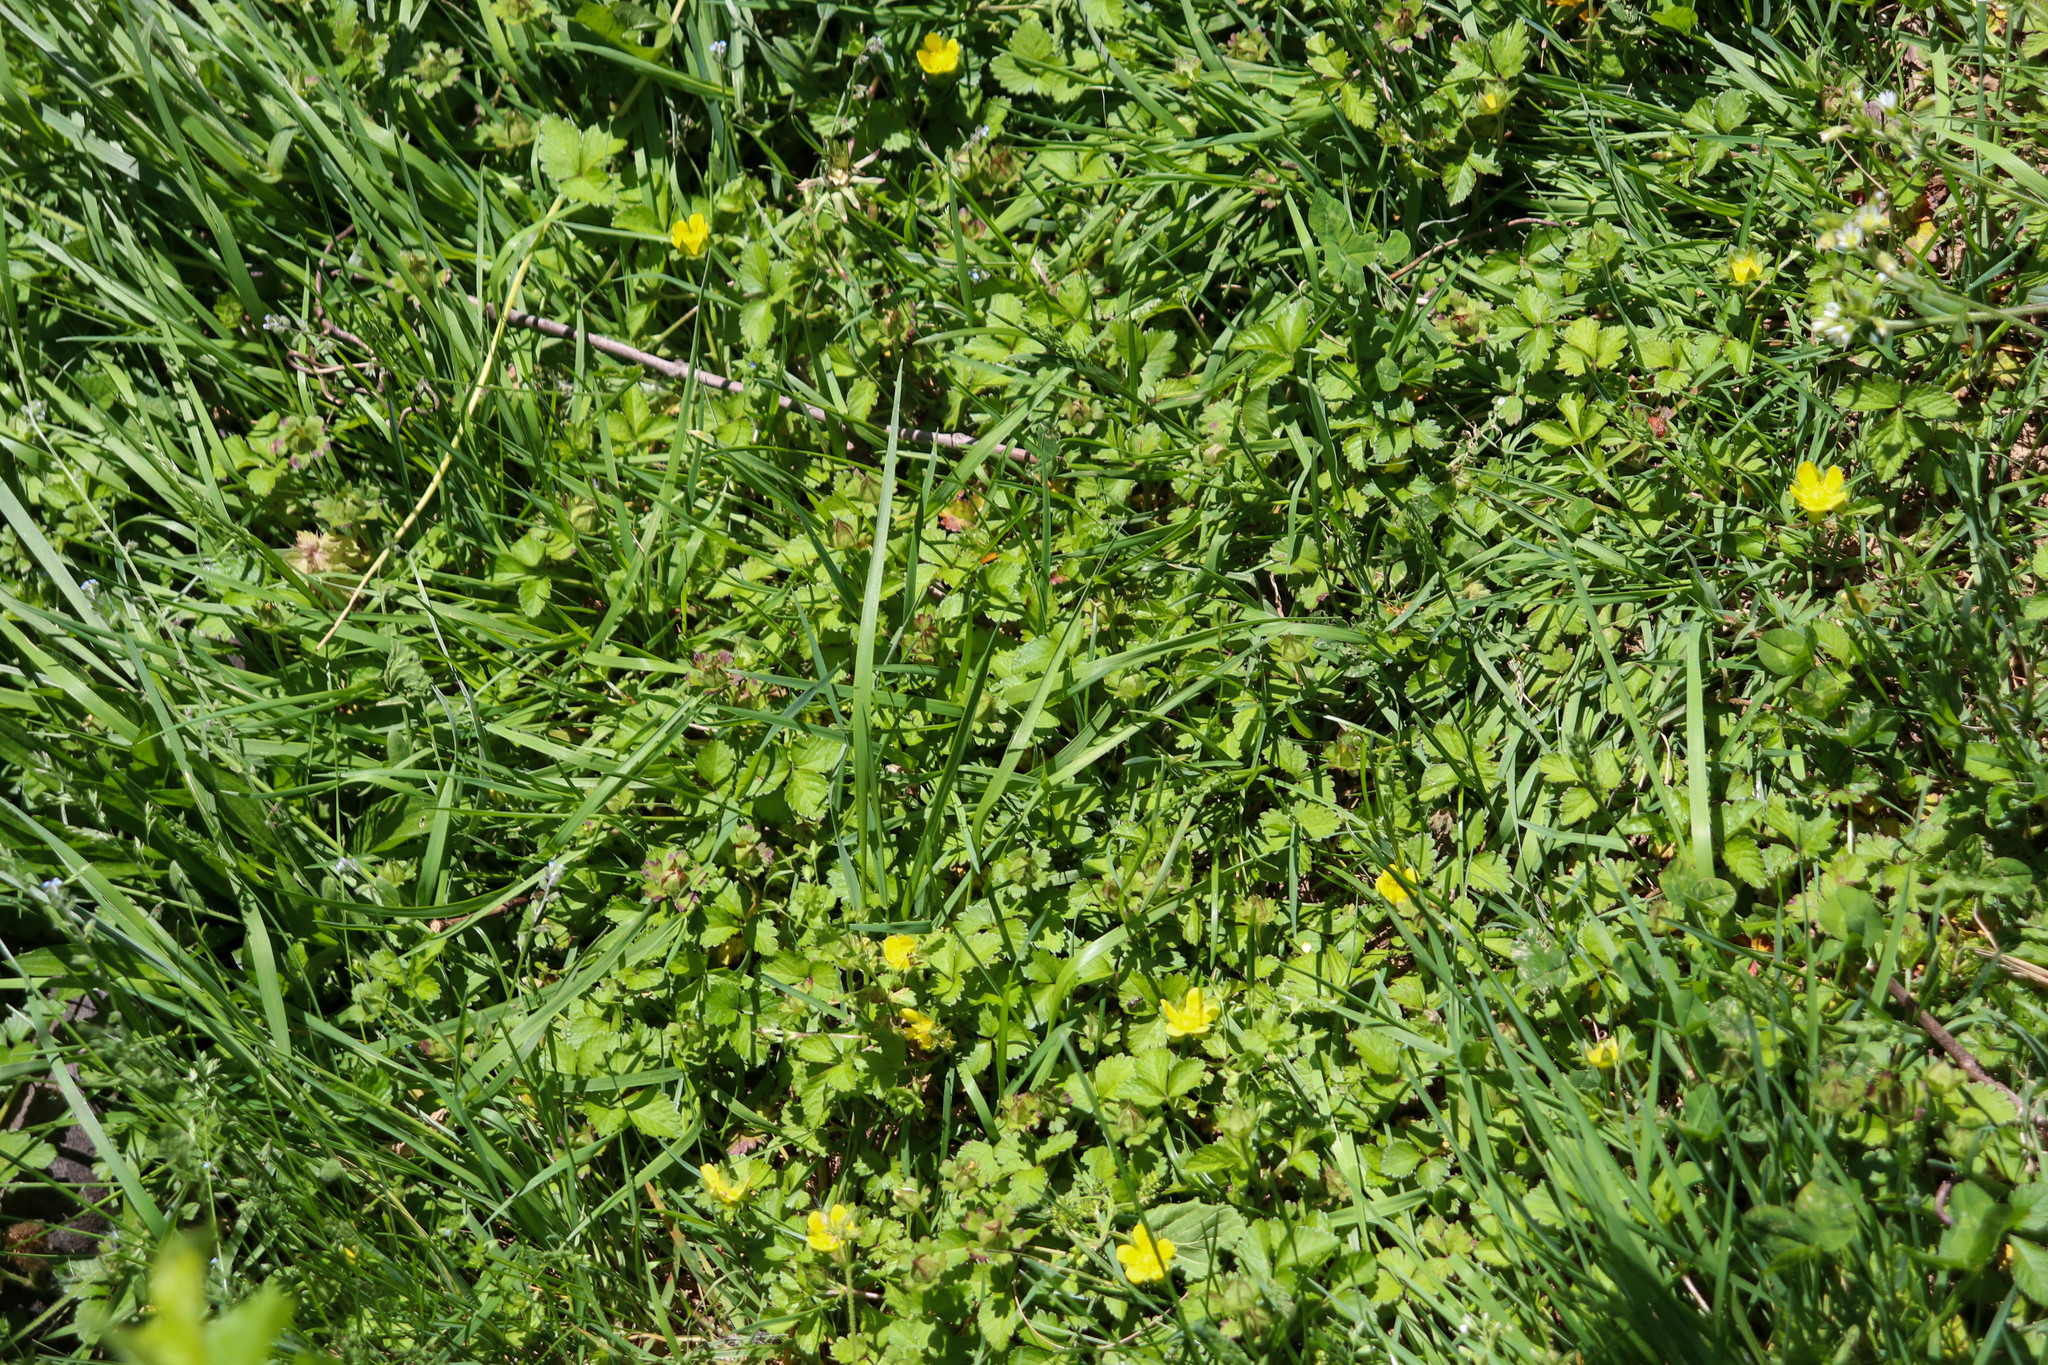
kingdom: Plantae
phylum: Tracheophyta
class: Magnoliopsida
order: Rosales
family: Rosaceae
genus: Potentilla
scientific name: Potentilla indica
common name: Yellow-flowered strawberry
